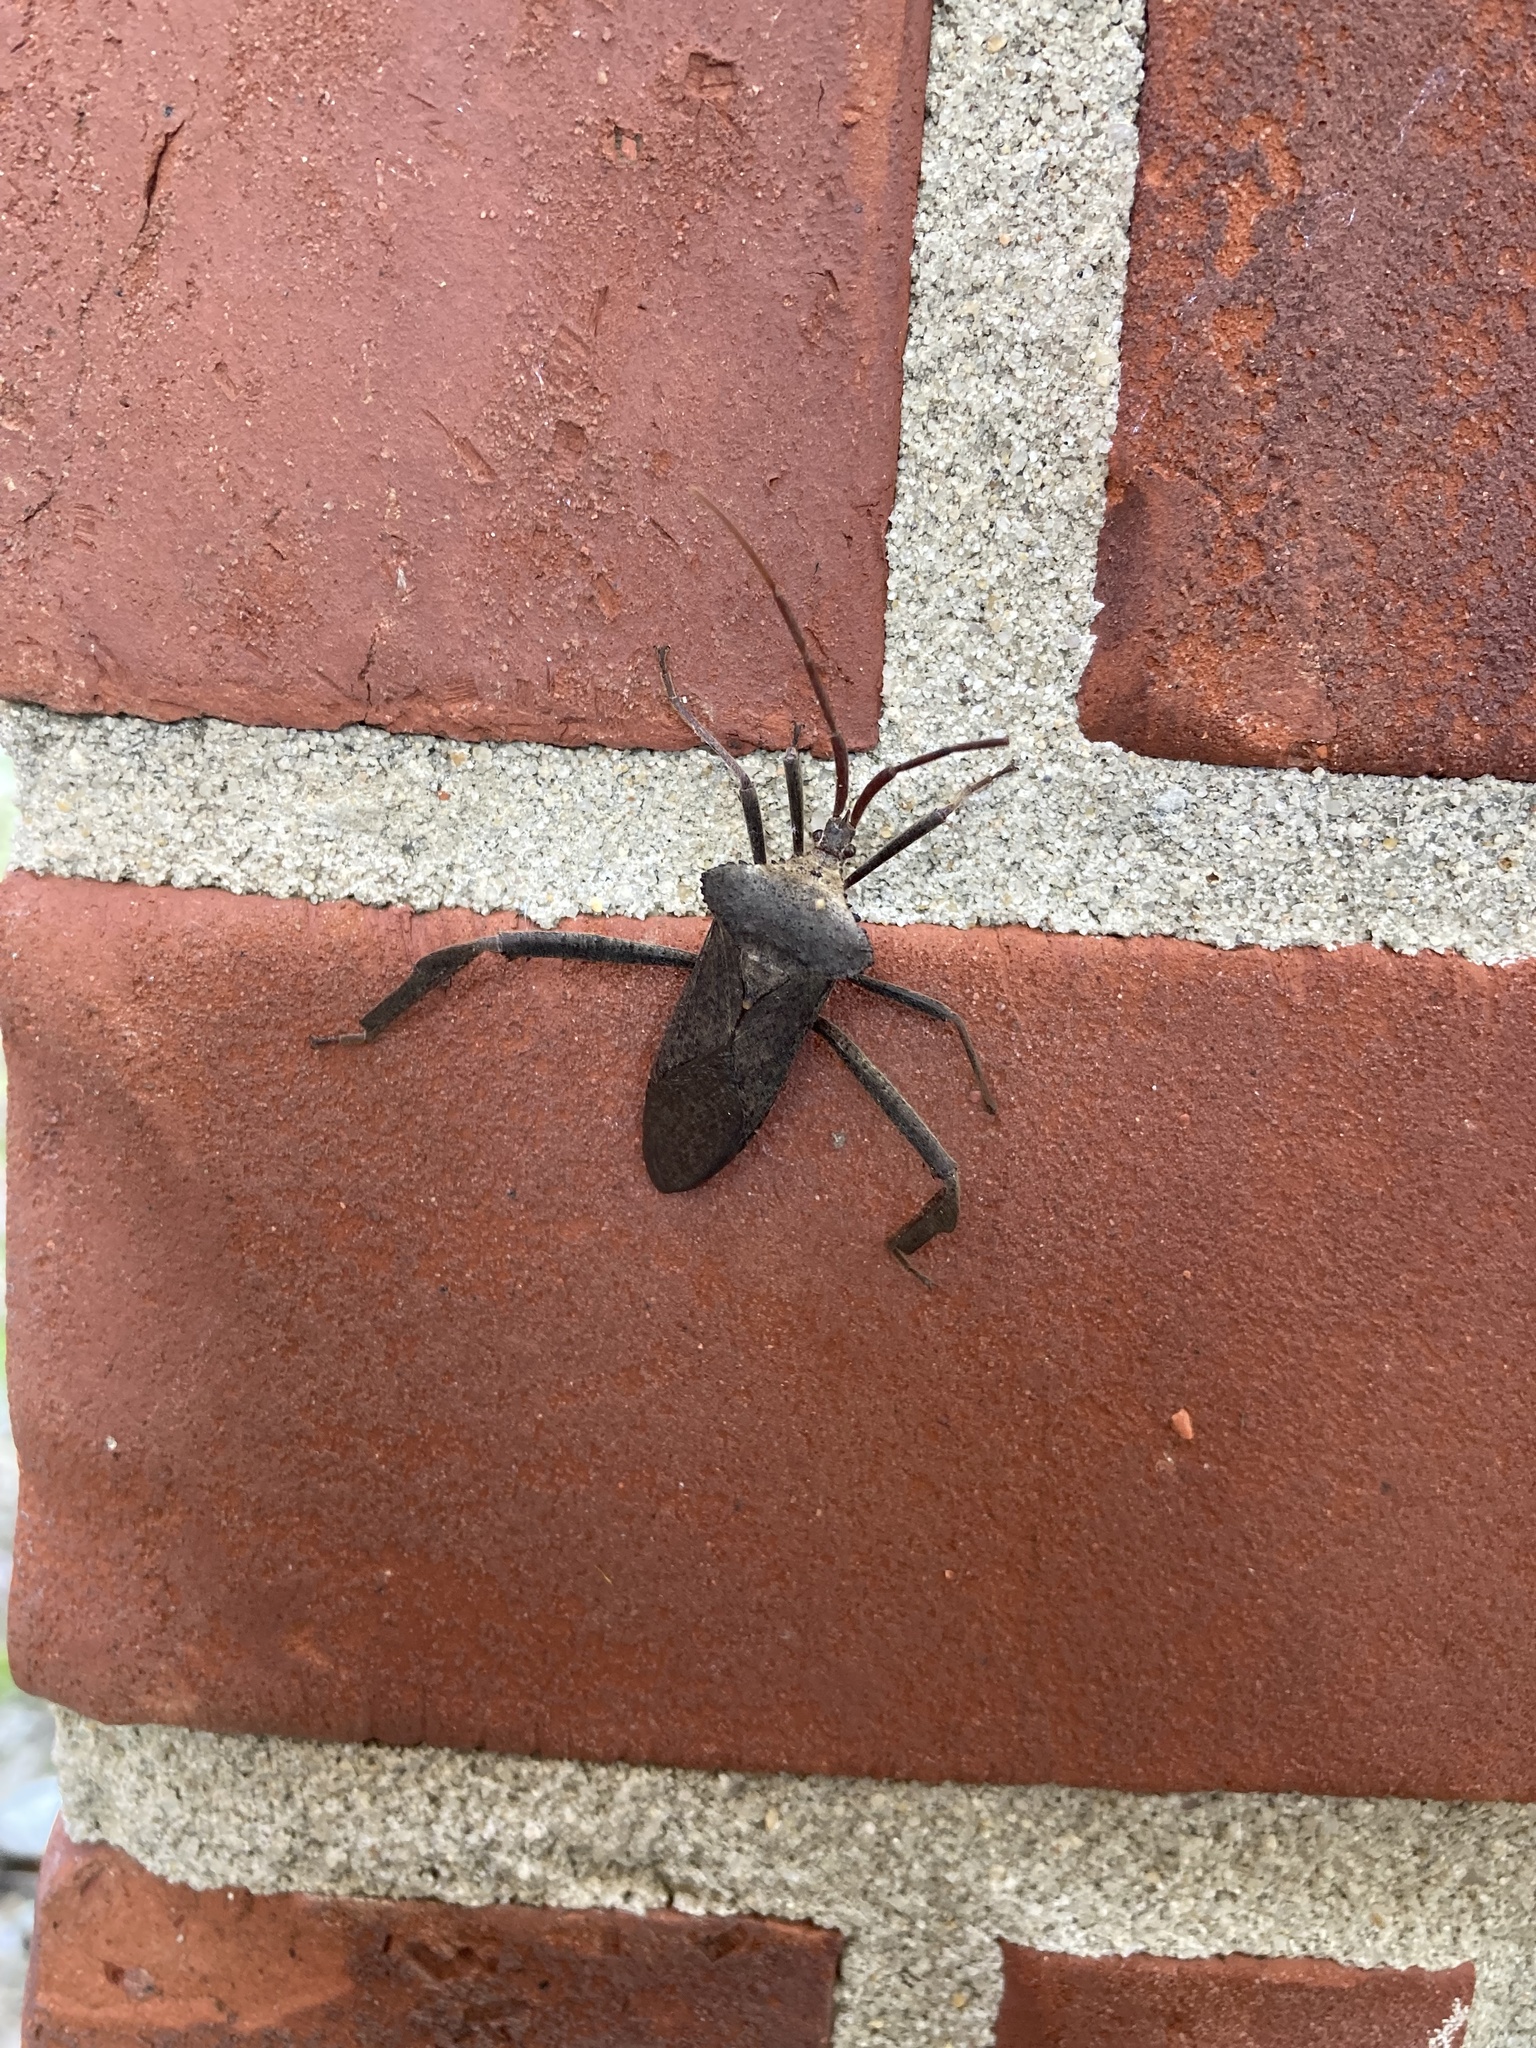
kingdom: Animalia
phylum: Arthropoda
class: Insecta
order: Hemiptera
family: Coreidae
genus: Acanthocephala
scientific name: Acanthocephala declivis
